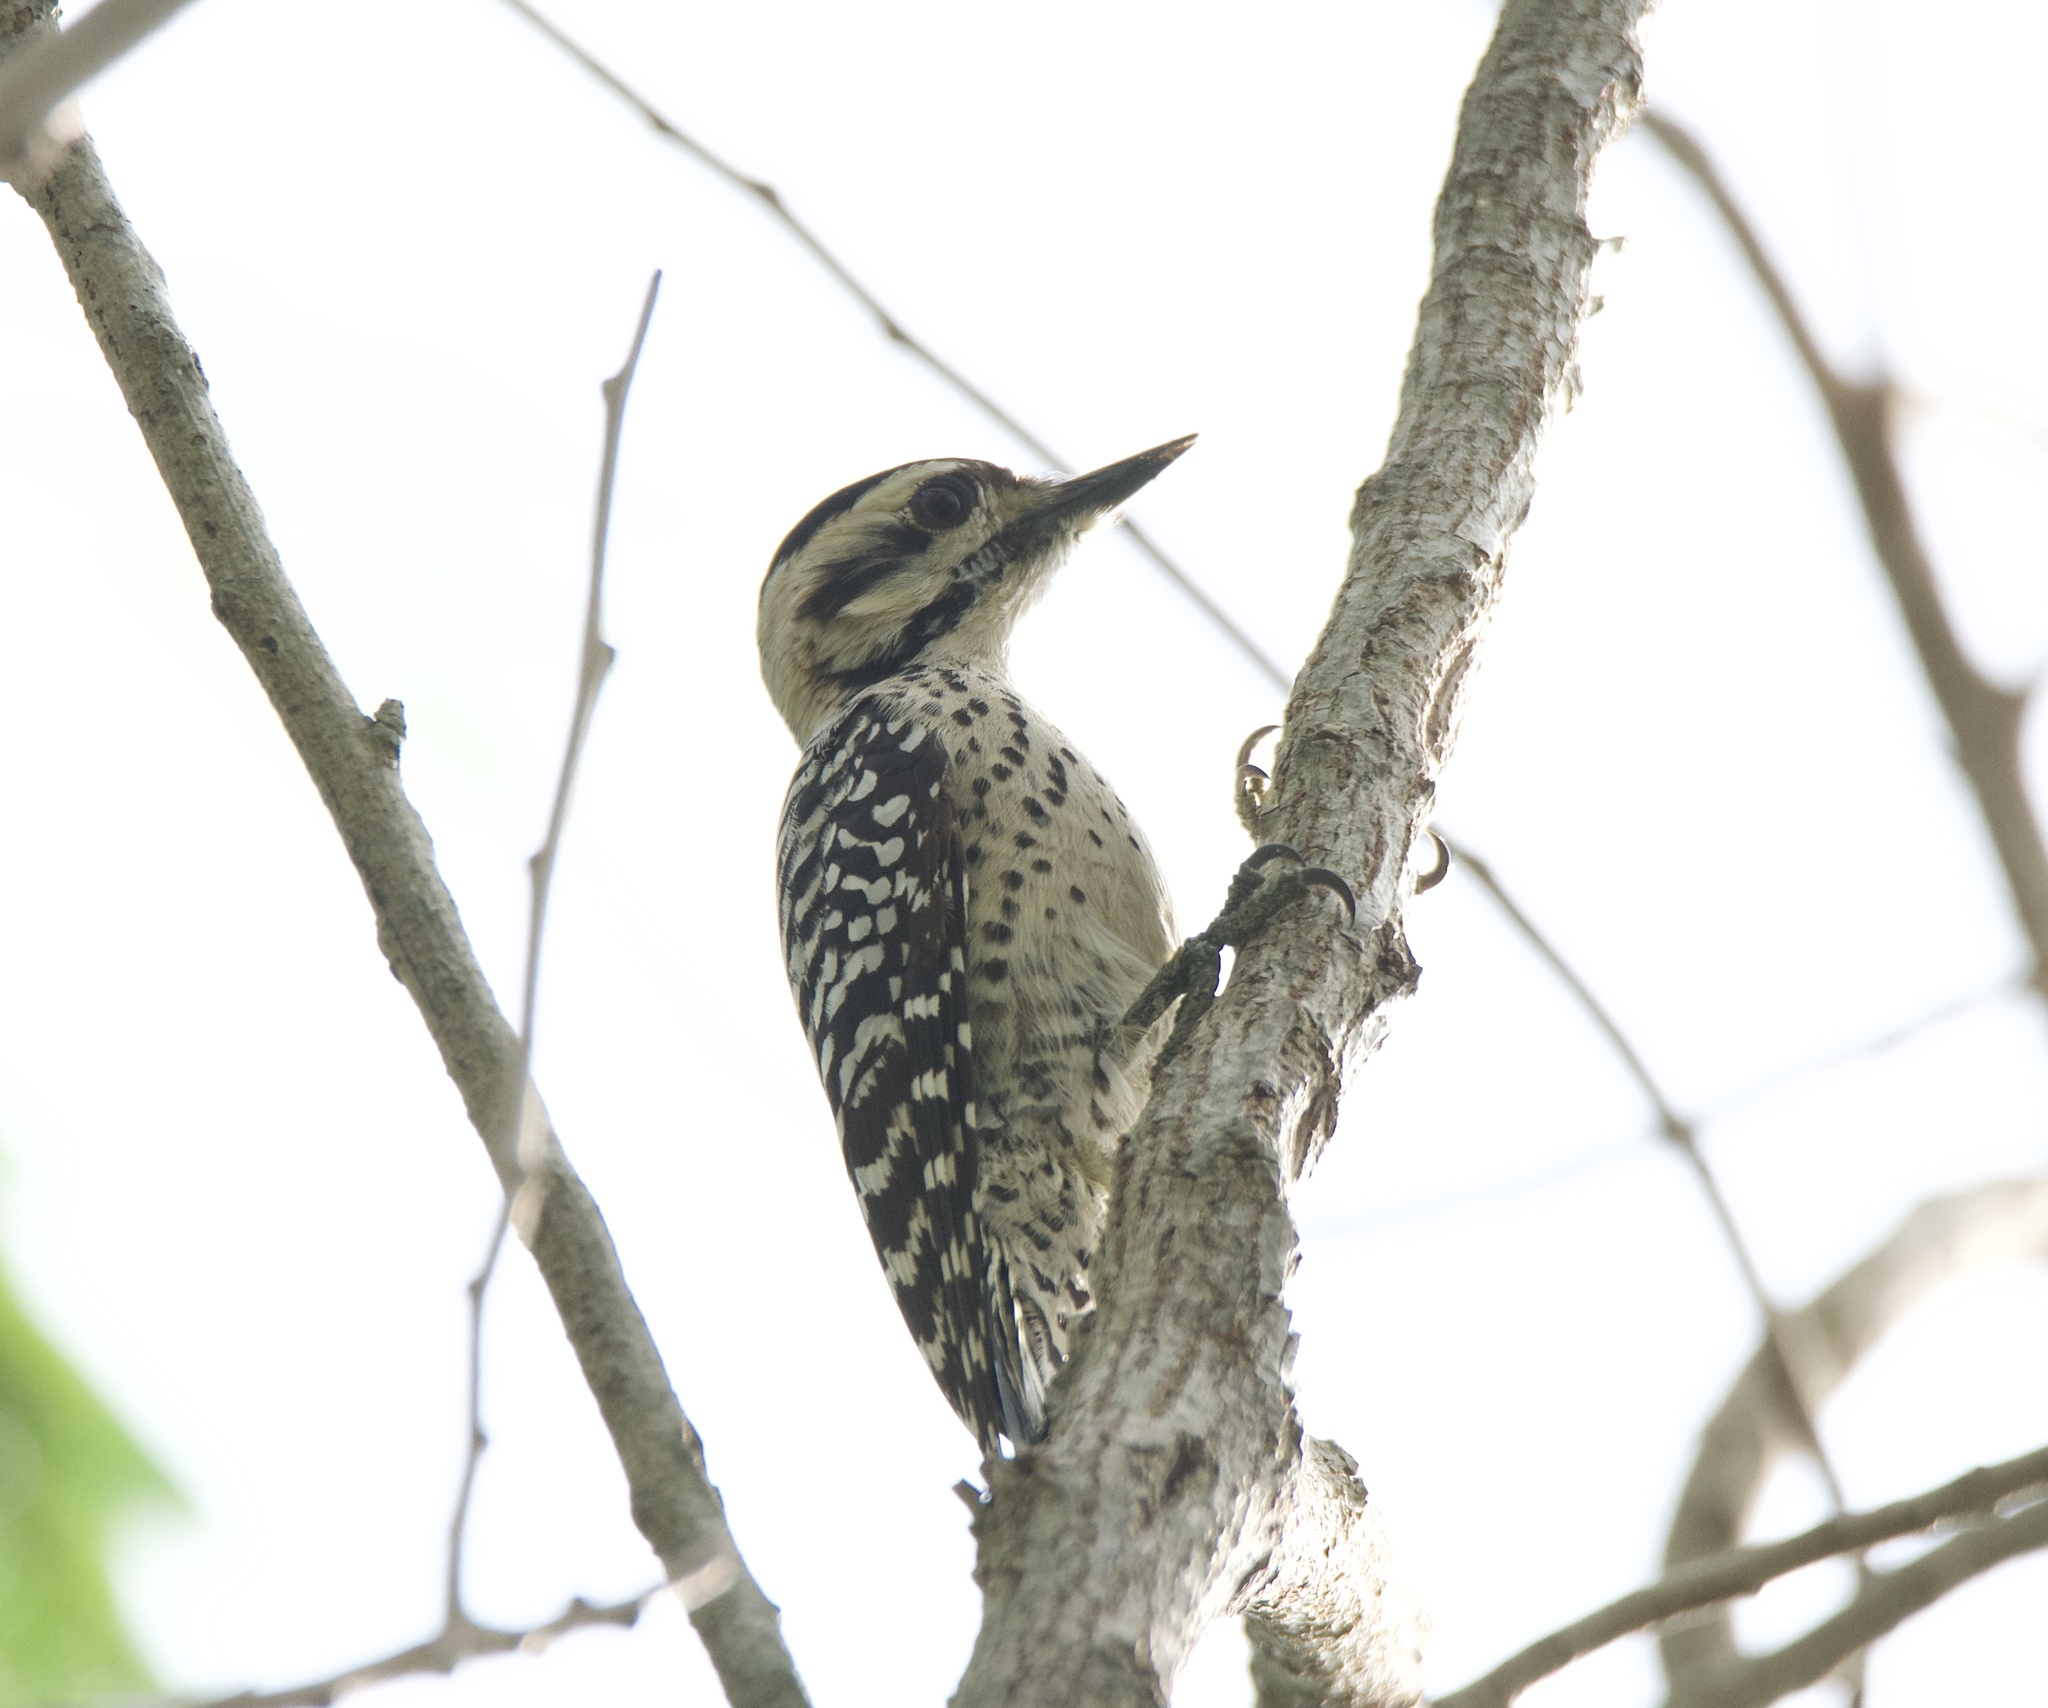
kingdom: Animalia
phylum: Chordata
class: Aves
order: Piciformes
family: Picidae
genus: Dryobates
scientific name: Dryobates scalaris
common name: Ladder-backed woodpecker
